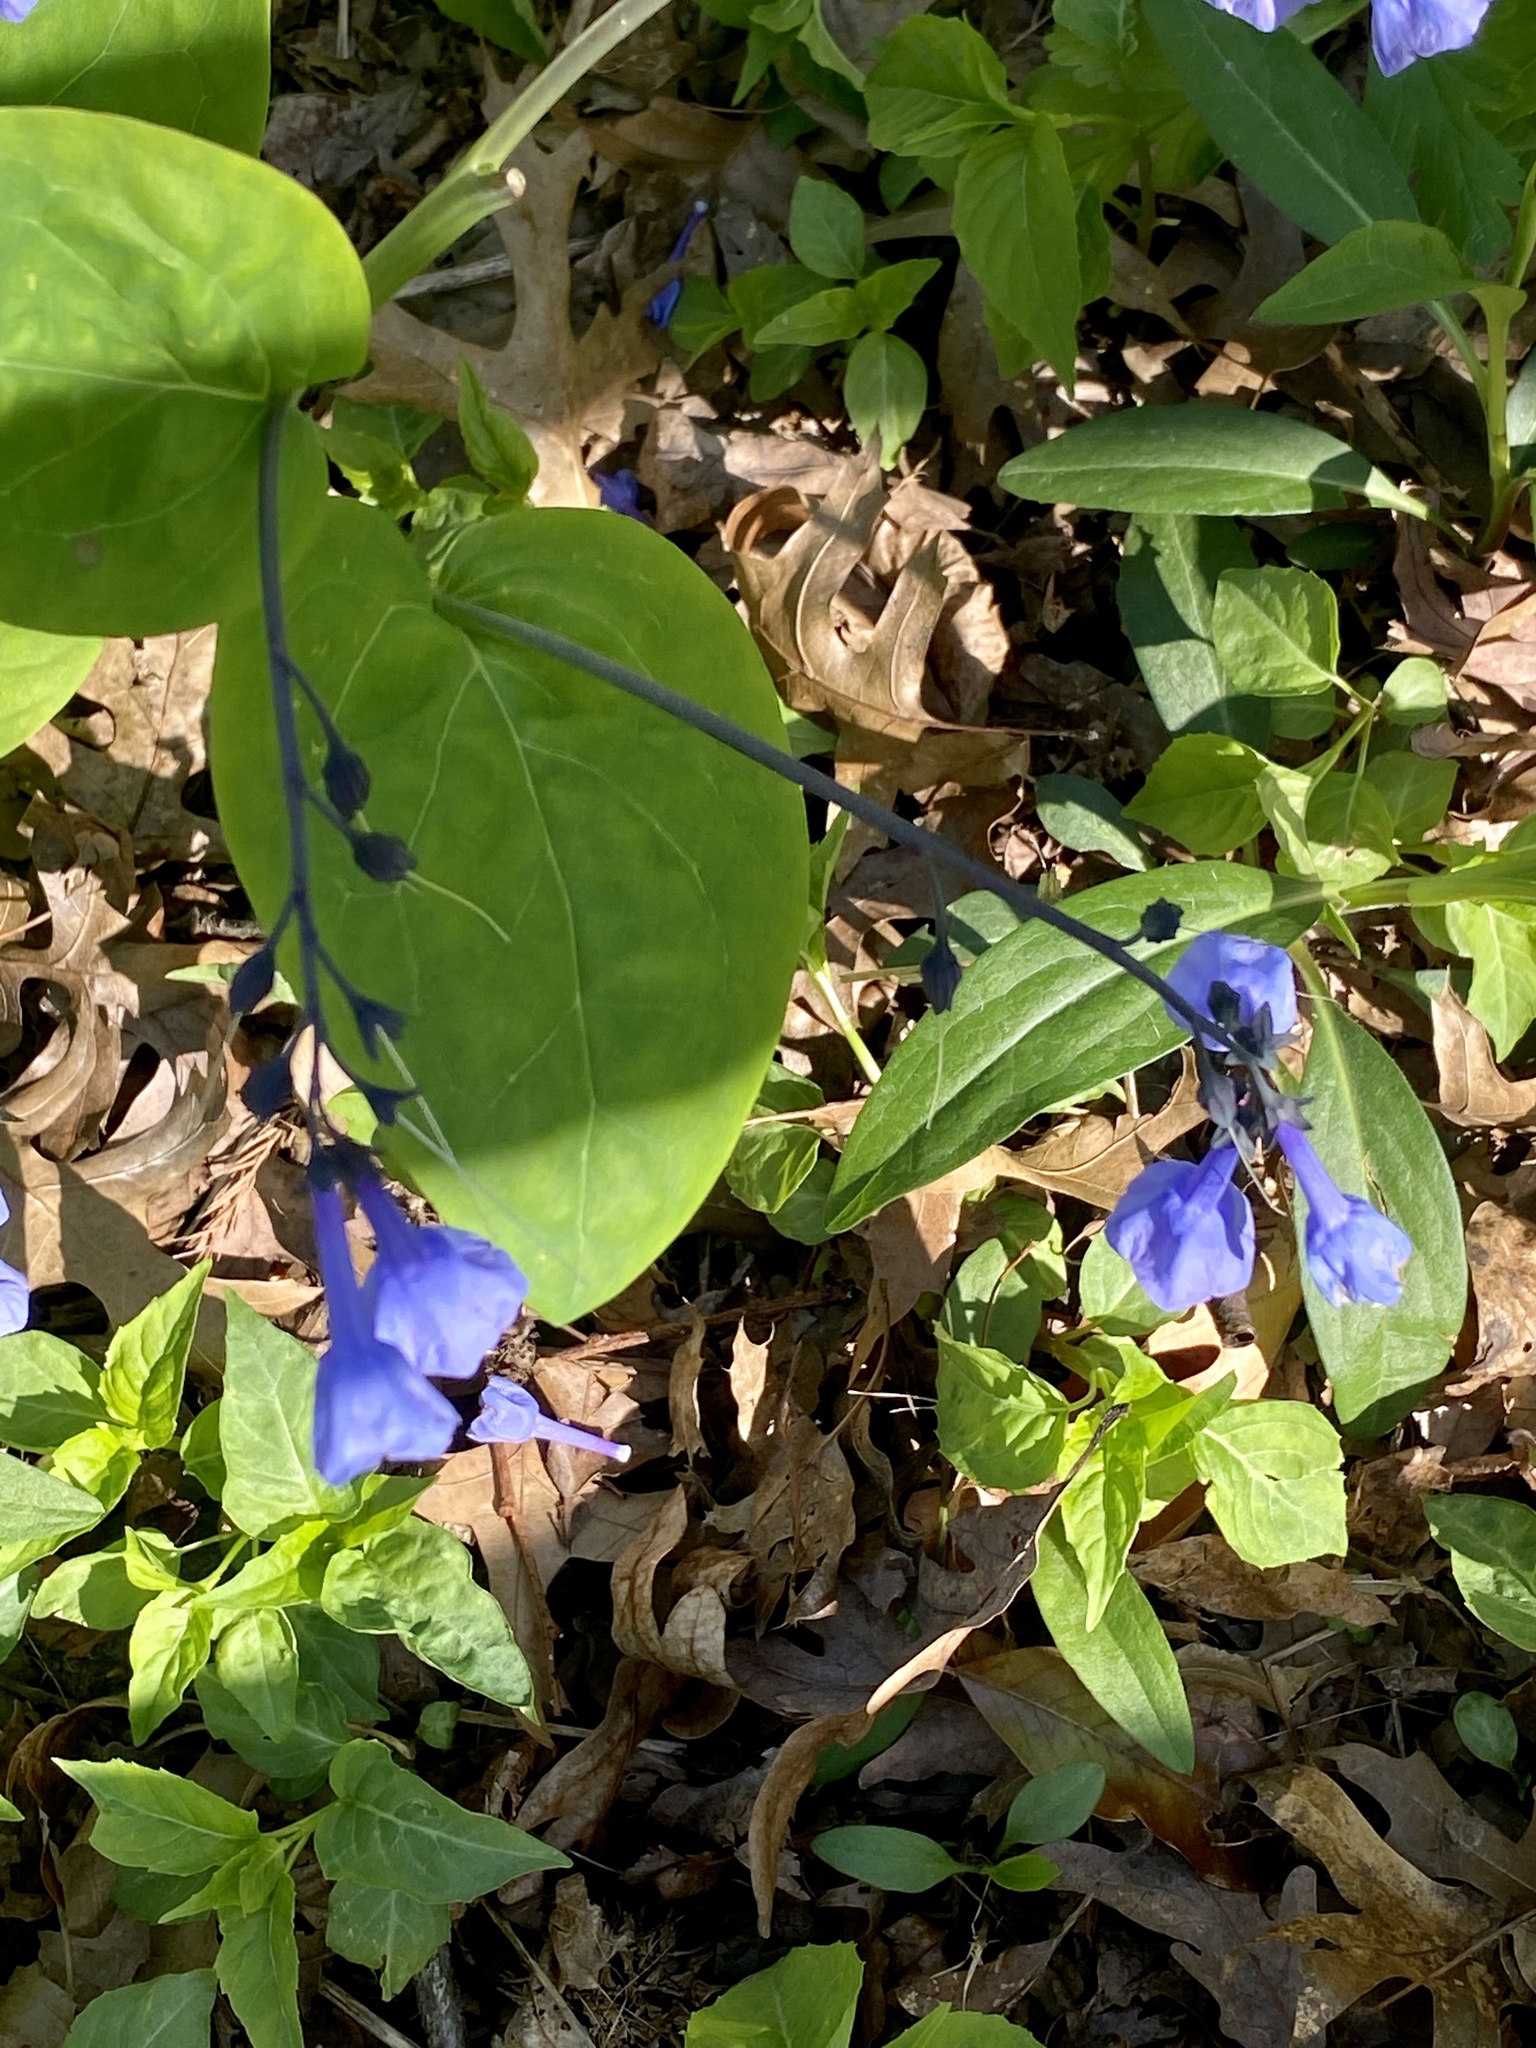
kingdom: Plantae
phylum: Tracheophyta
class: Magnoliopsida
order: Boraginales
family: Boraginaceae
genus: Mertensia
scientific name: Mertensia virginica
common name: Virginia bluebells
